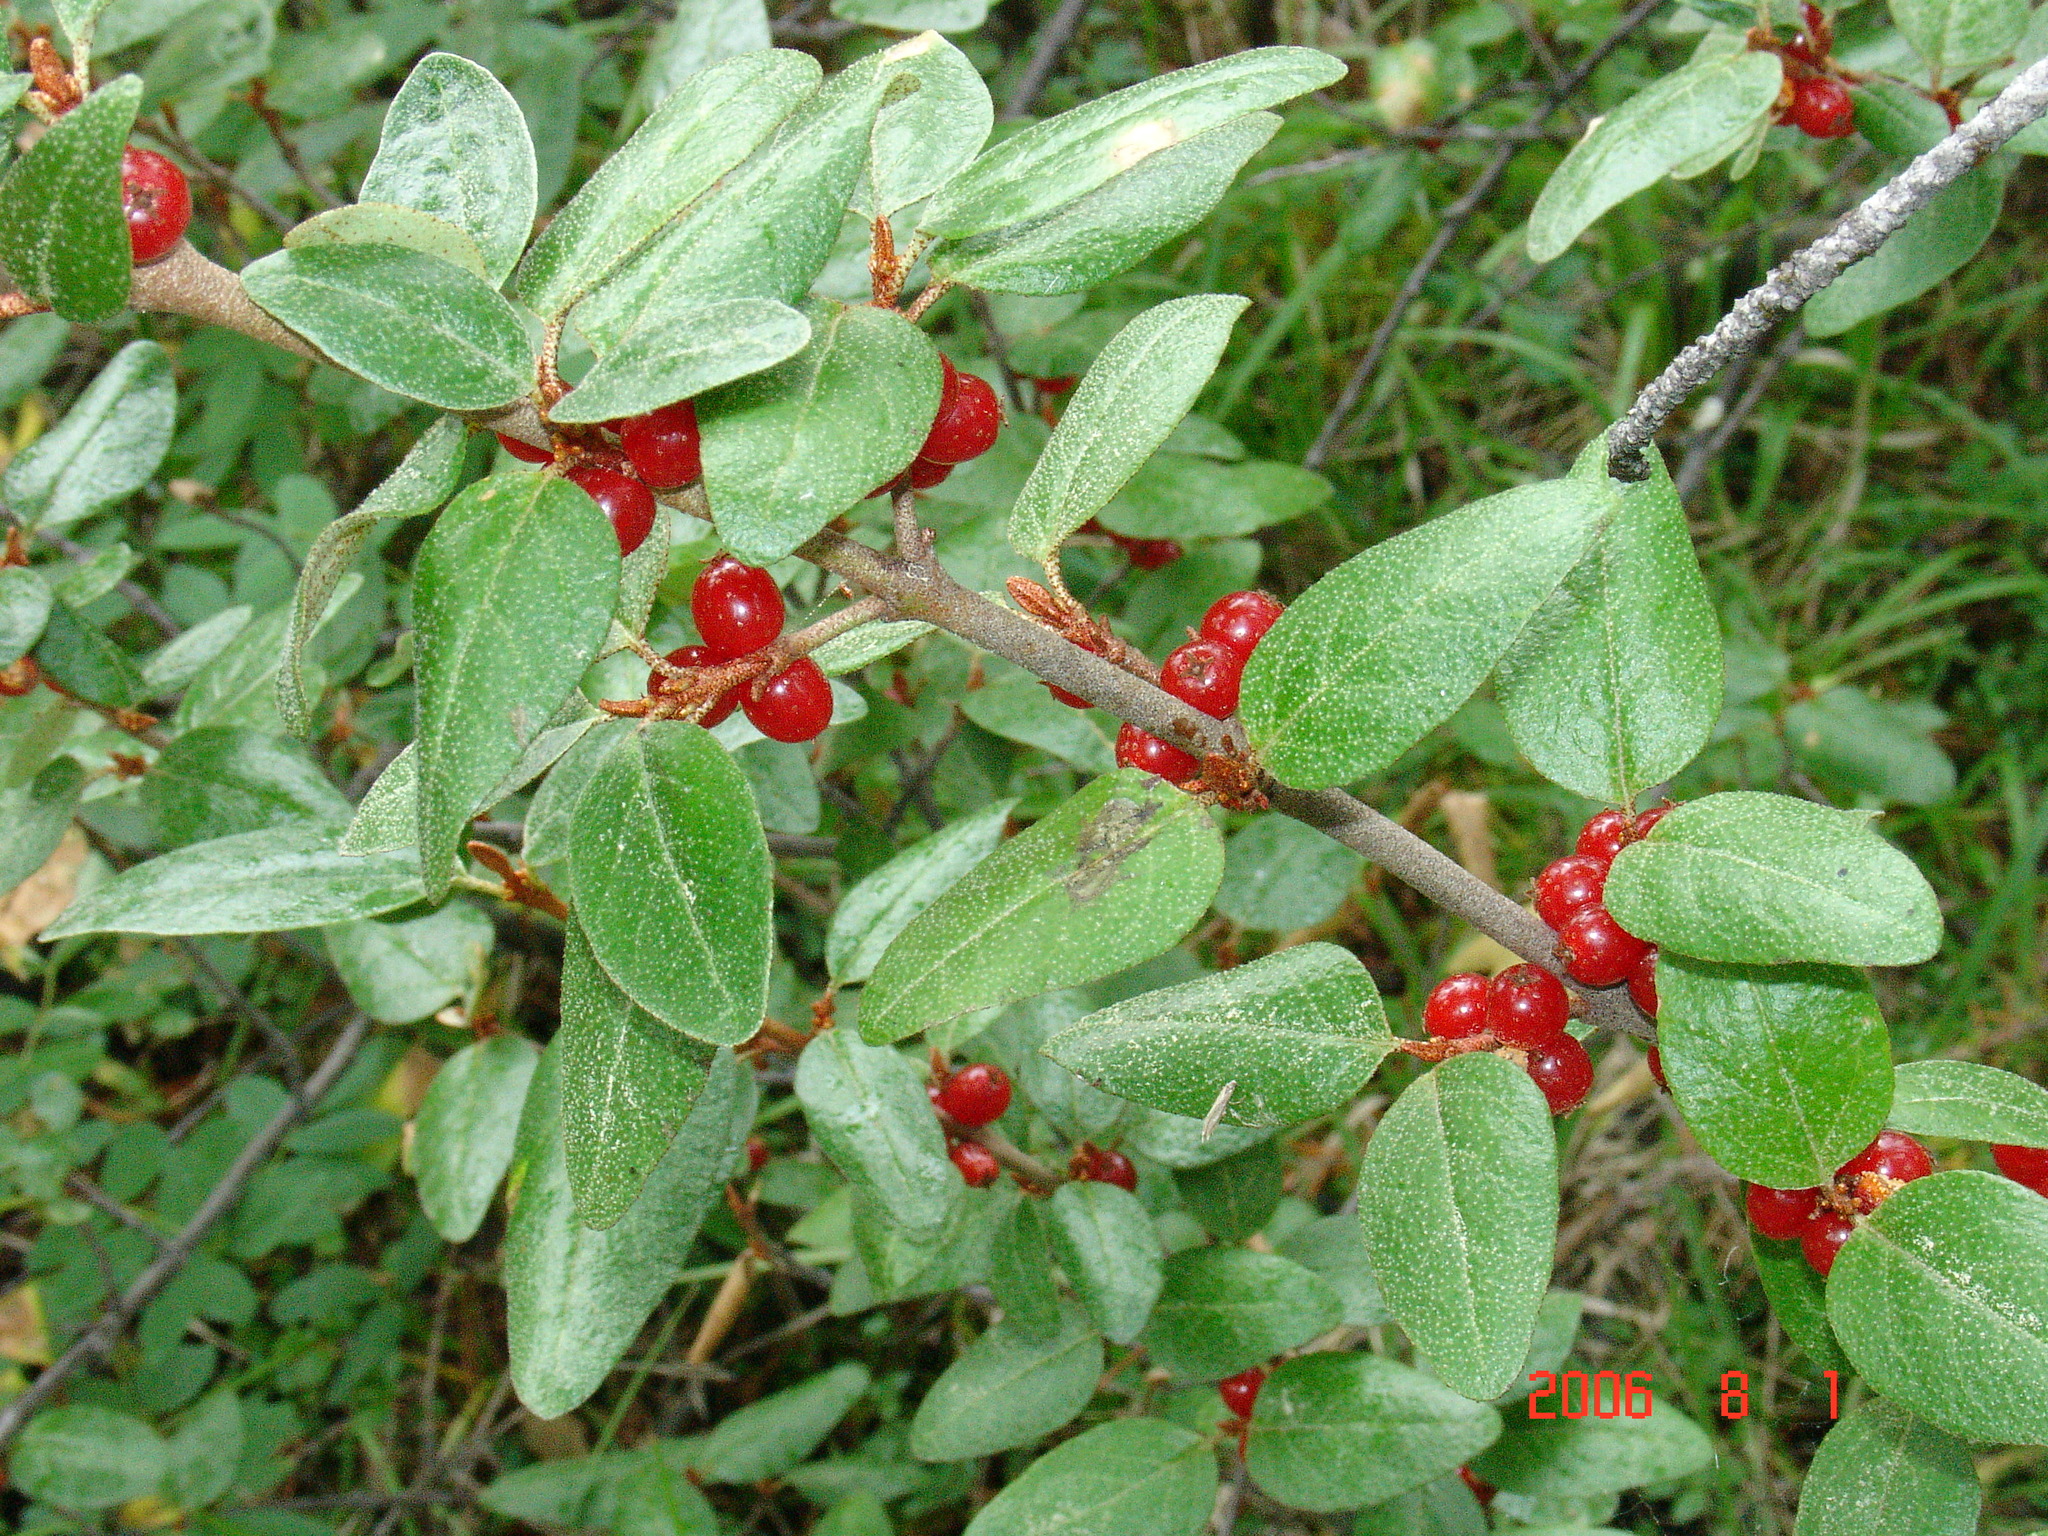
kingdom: Plantae
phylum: Tracheophyta
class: Magnoliopsida
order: Rosales
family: Elaeagnaceae
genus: Shepherdia
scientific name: Shepherdia canadensis
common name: Soapberry
